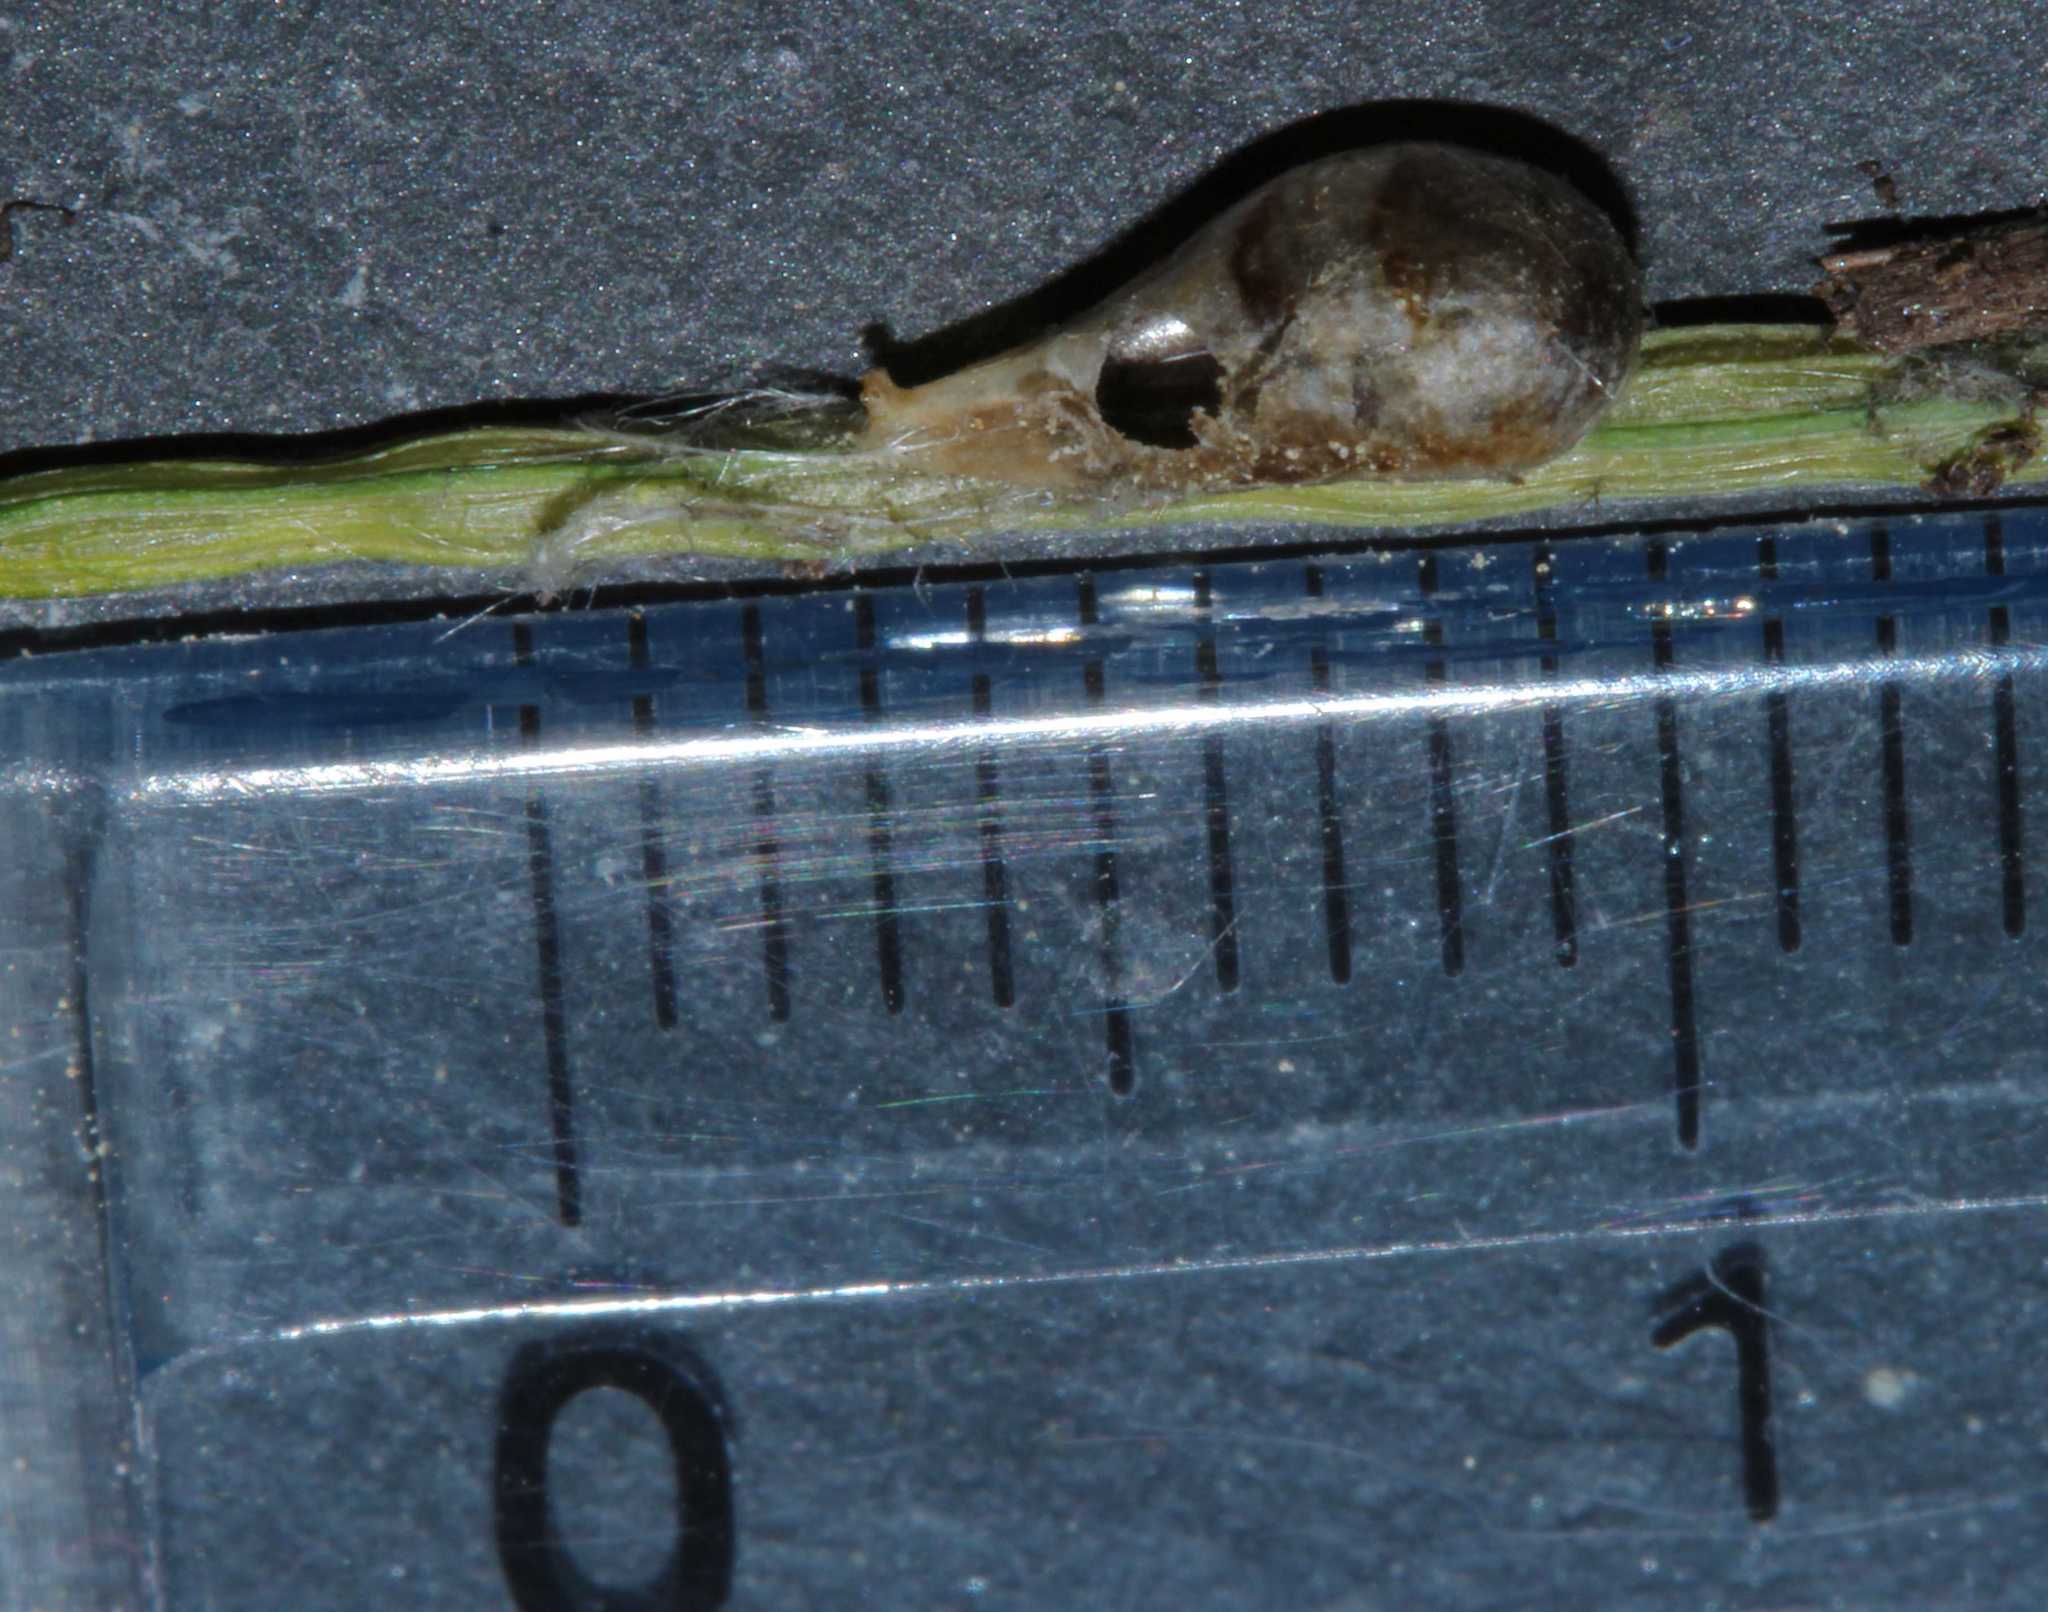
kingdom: Animalia
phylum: Arthropoda
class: Insecta
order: Diptera
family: Syrphidae
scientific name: Syrphidae
